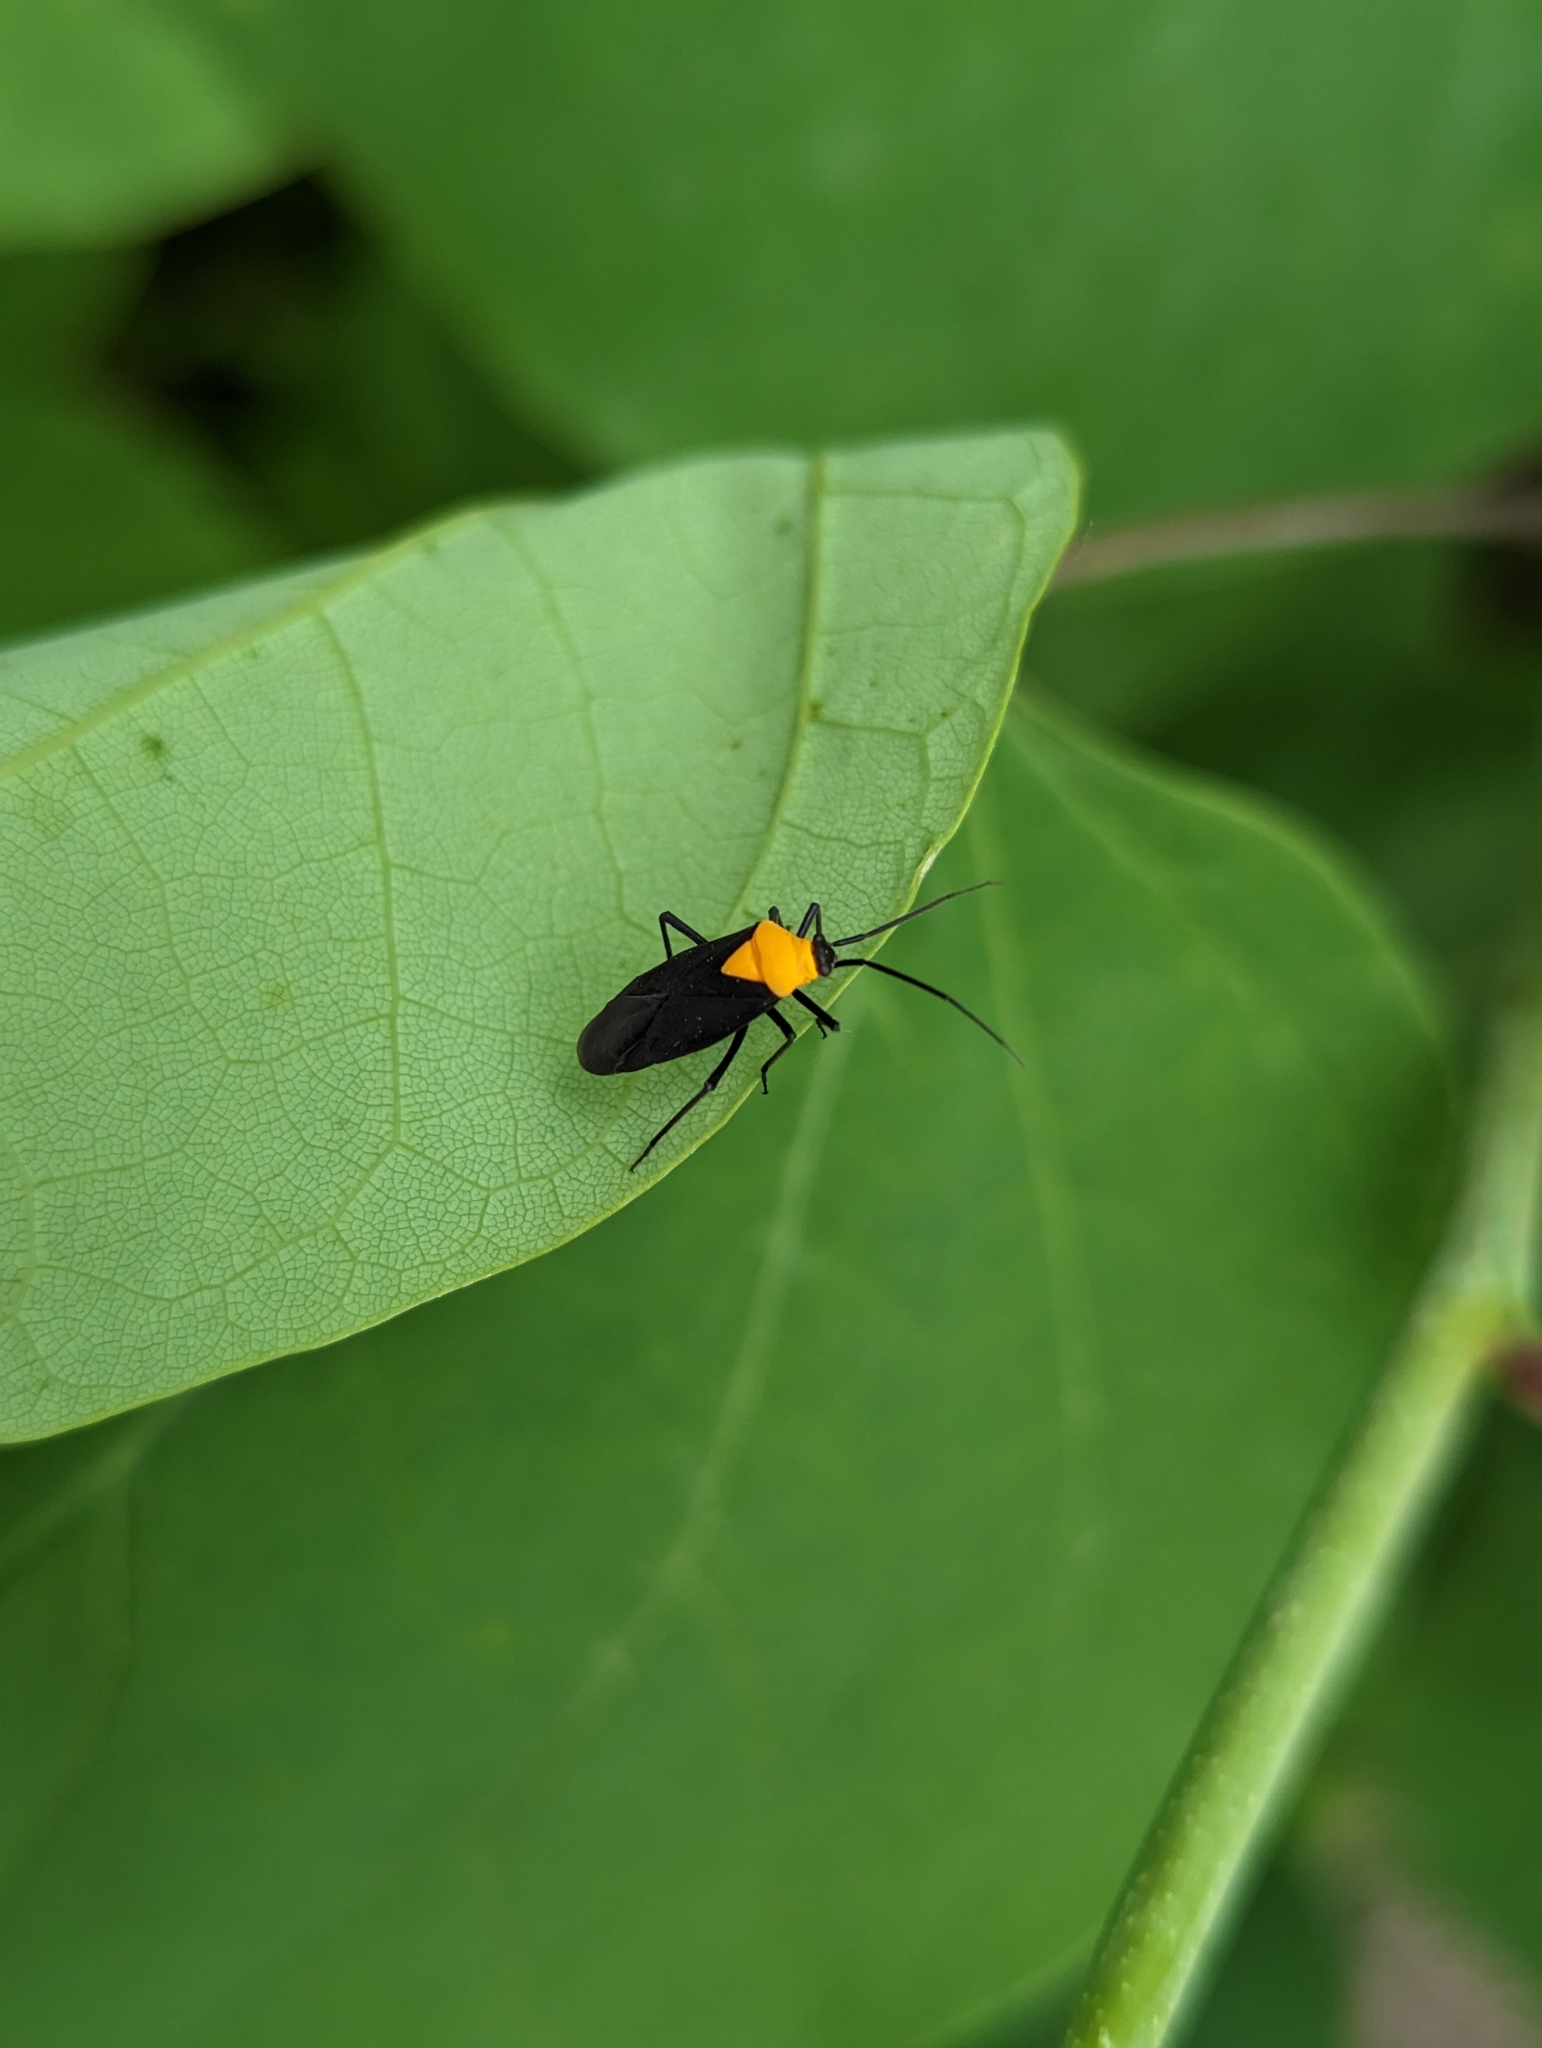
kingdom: Animalia
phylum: Arthropoda
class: Insecta
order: Hemiptera
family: Miridae
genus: Prepops
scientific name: Prepops insitivus
